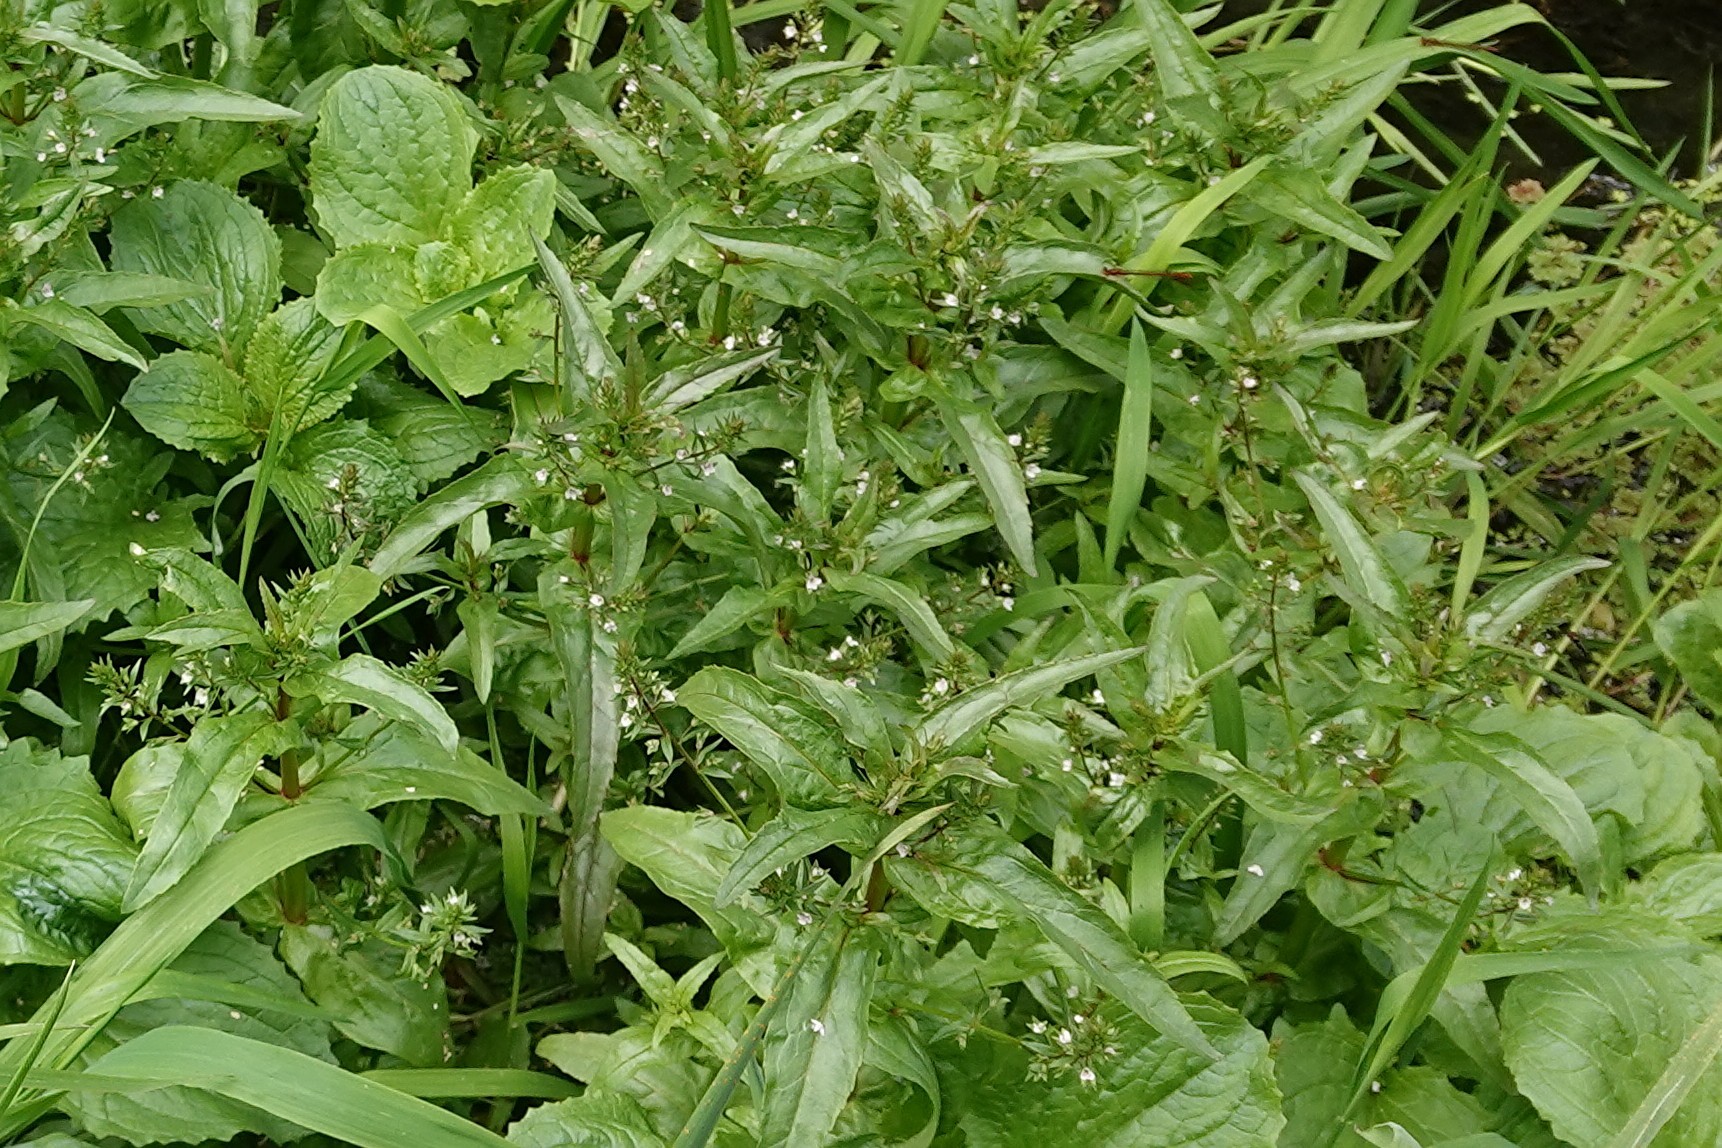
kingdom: Plantae
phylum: Tracheophyta
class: Magnoliopsida
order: Lamiales
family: Plantaginaceae
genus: Veronica
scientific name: Veronica anagallis-aquatica
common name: Water speedwell
